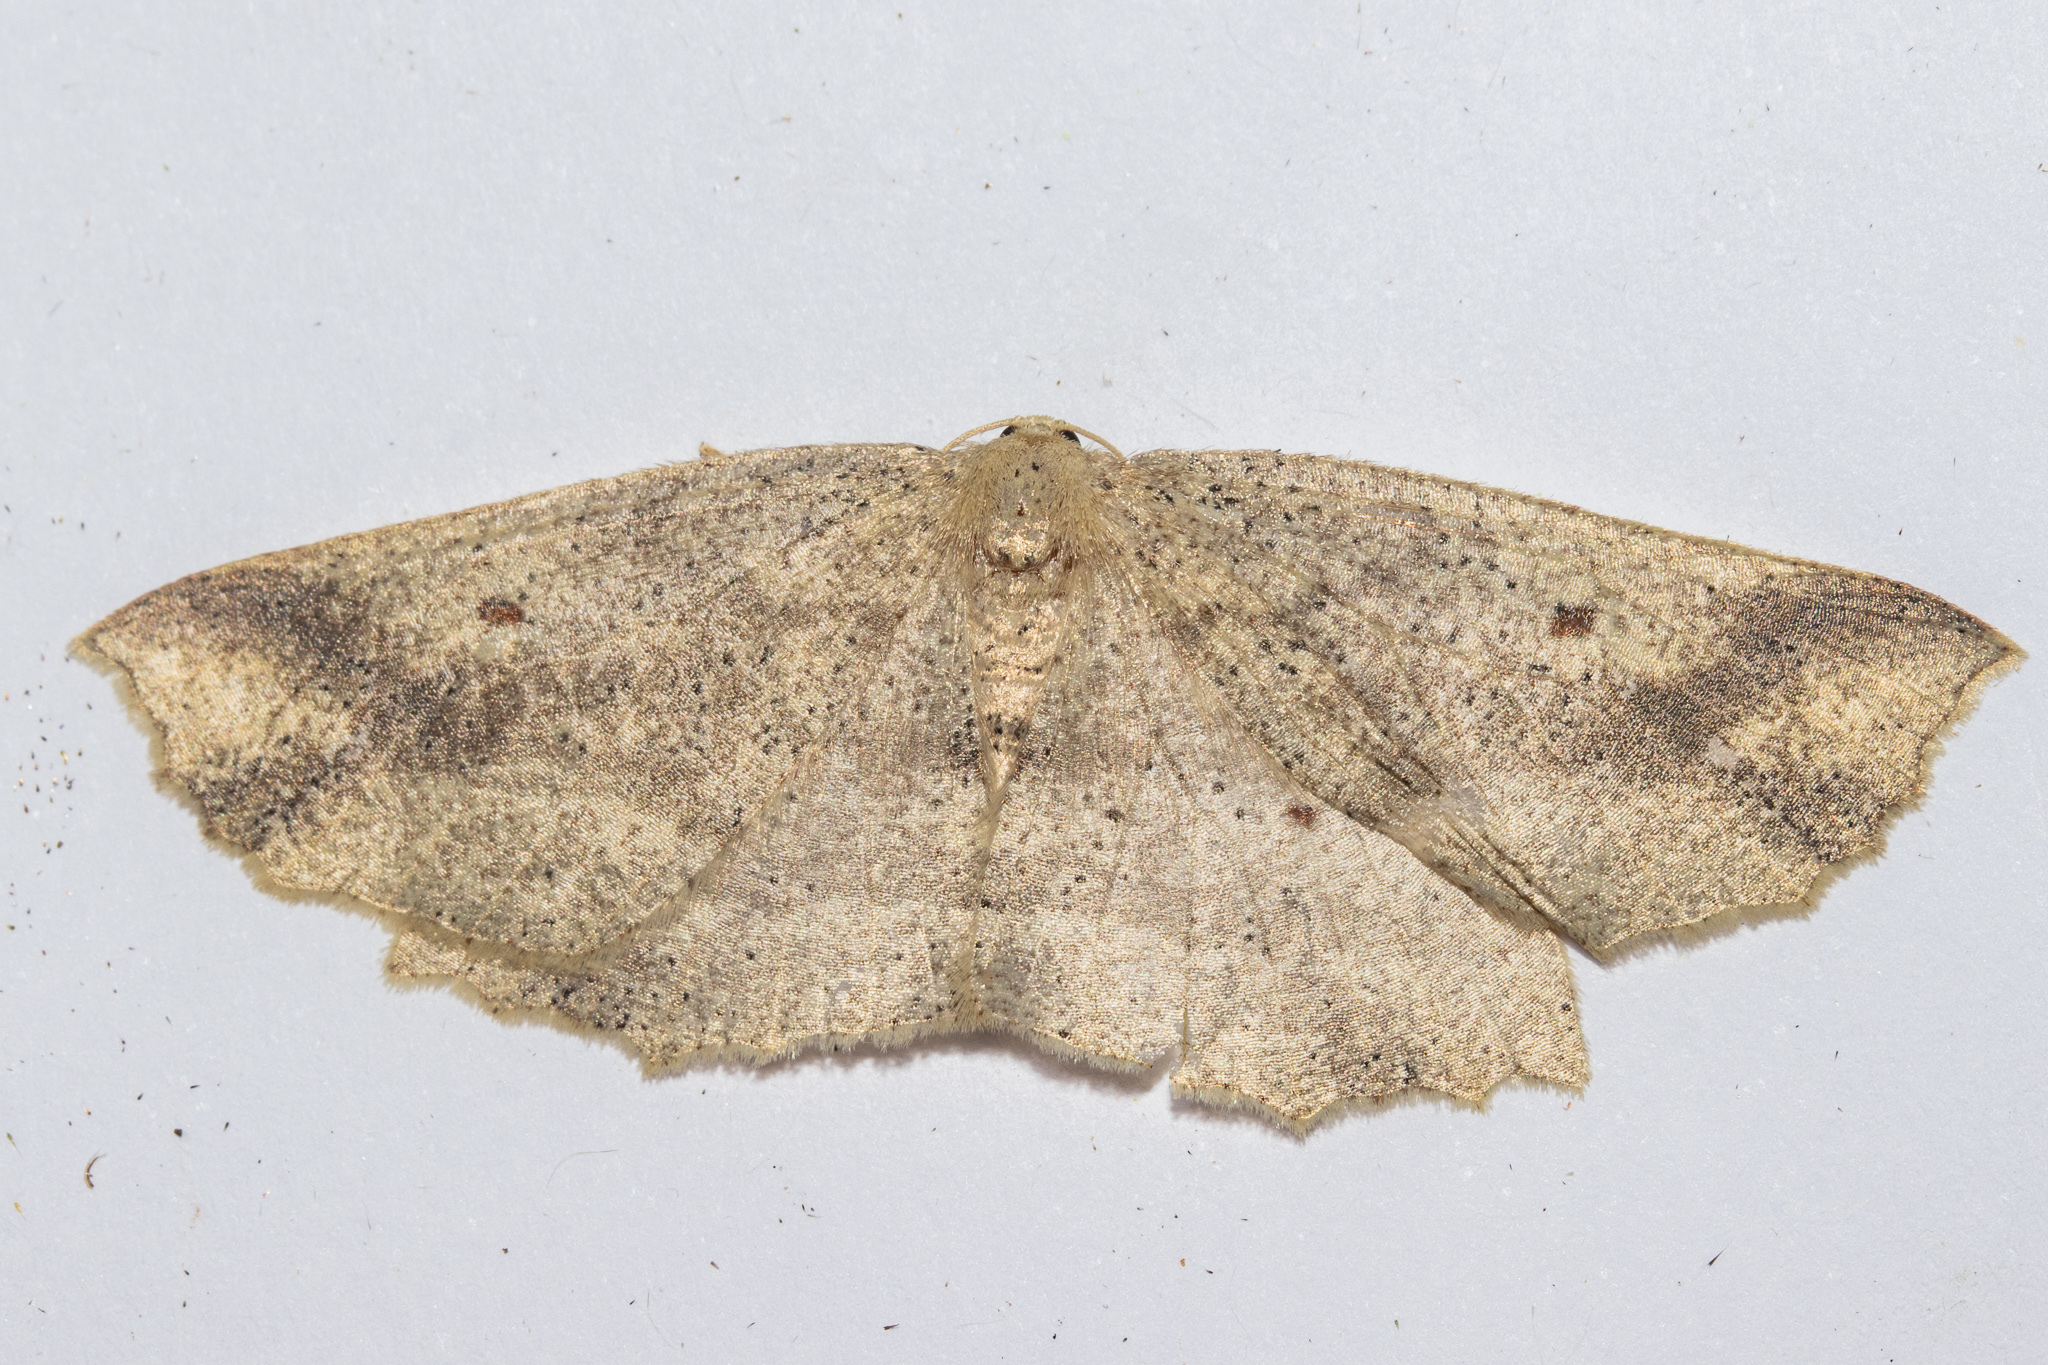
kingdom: Animalia
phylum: Arthropoda
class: Insecta
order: Lepidoptera
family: Geometridae
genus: Xyridacma
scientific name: Xyridacma veronicae
